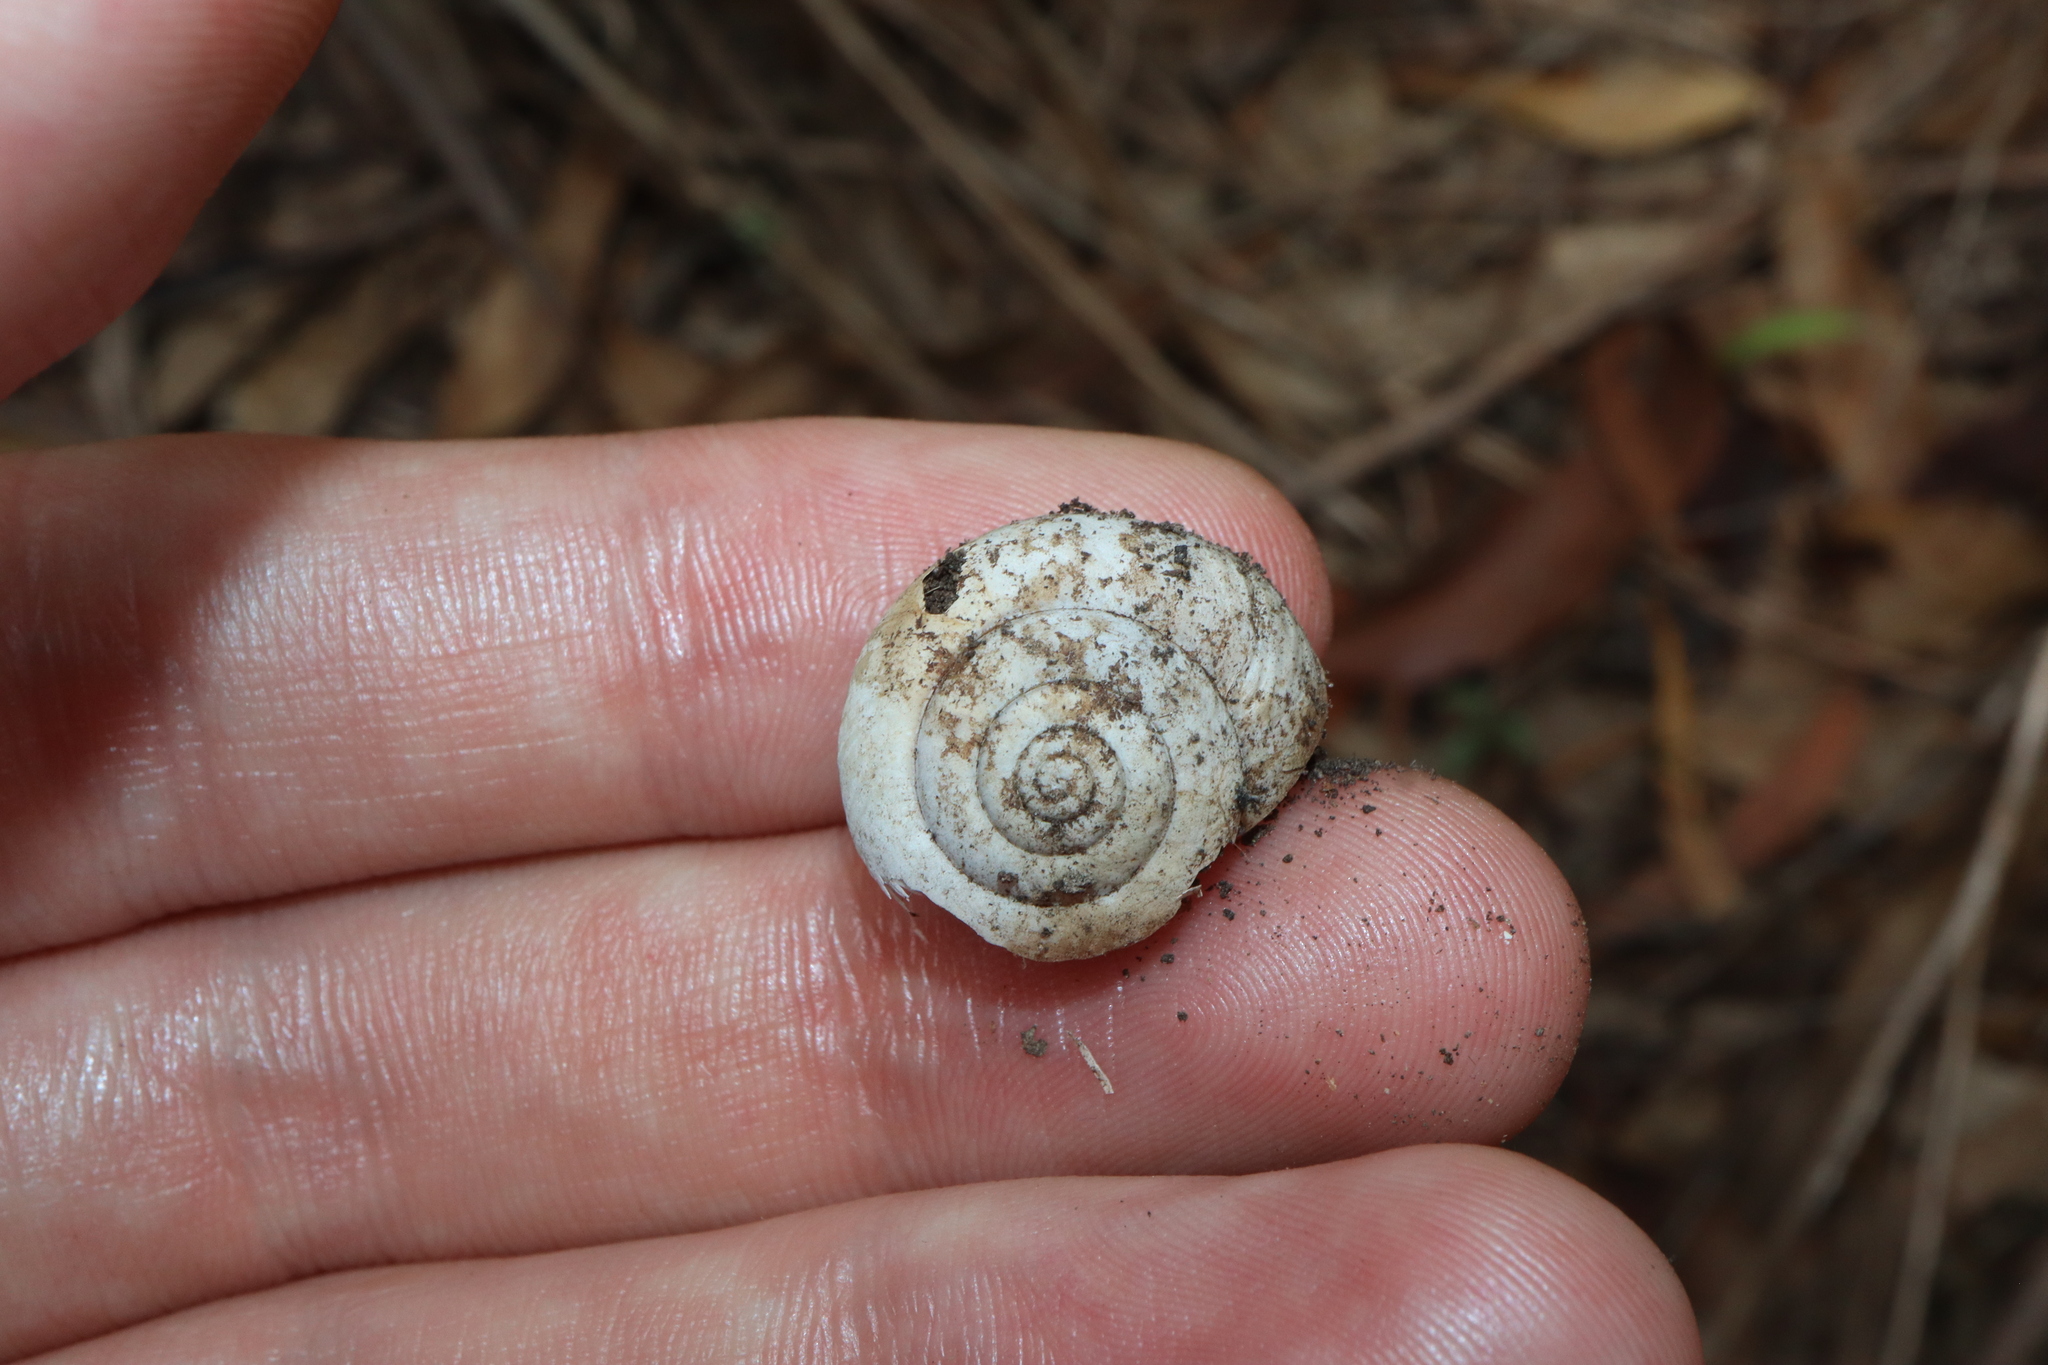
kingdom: Animalia
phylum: Mollusca
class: Gastropoda
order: Stylommatophora
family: Camaenidae
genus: Sauroconcha
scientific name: Sauroconcha sheai
